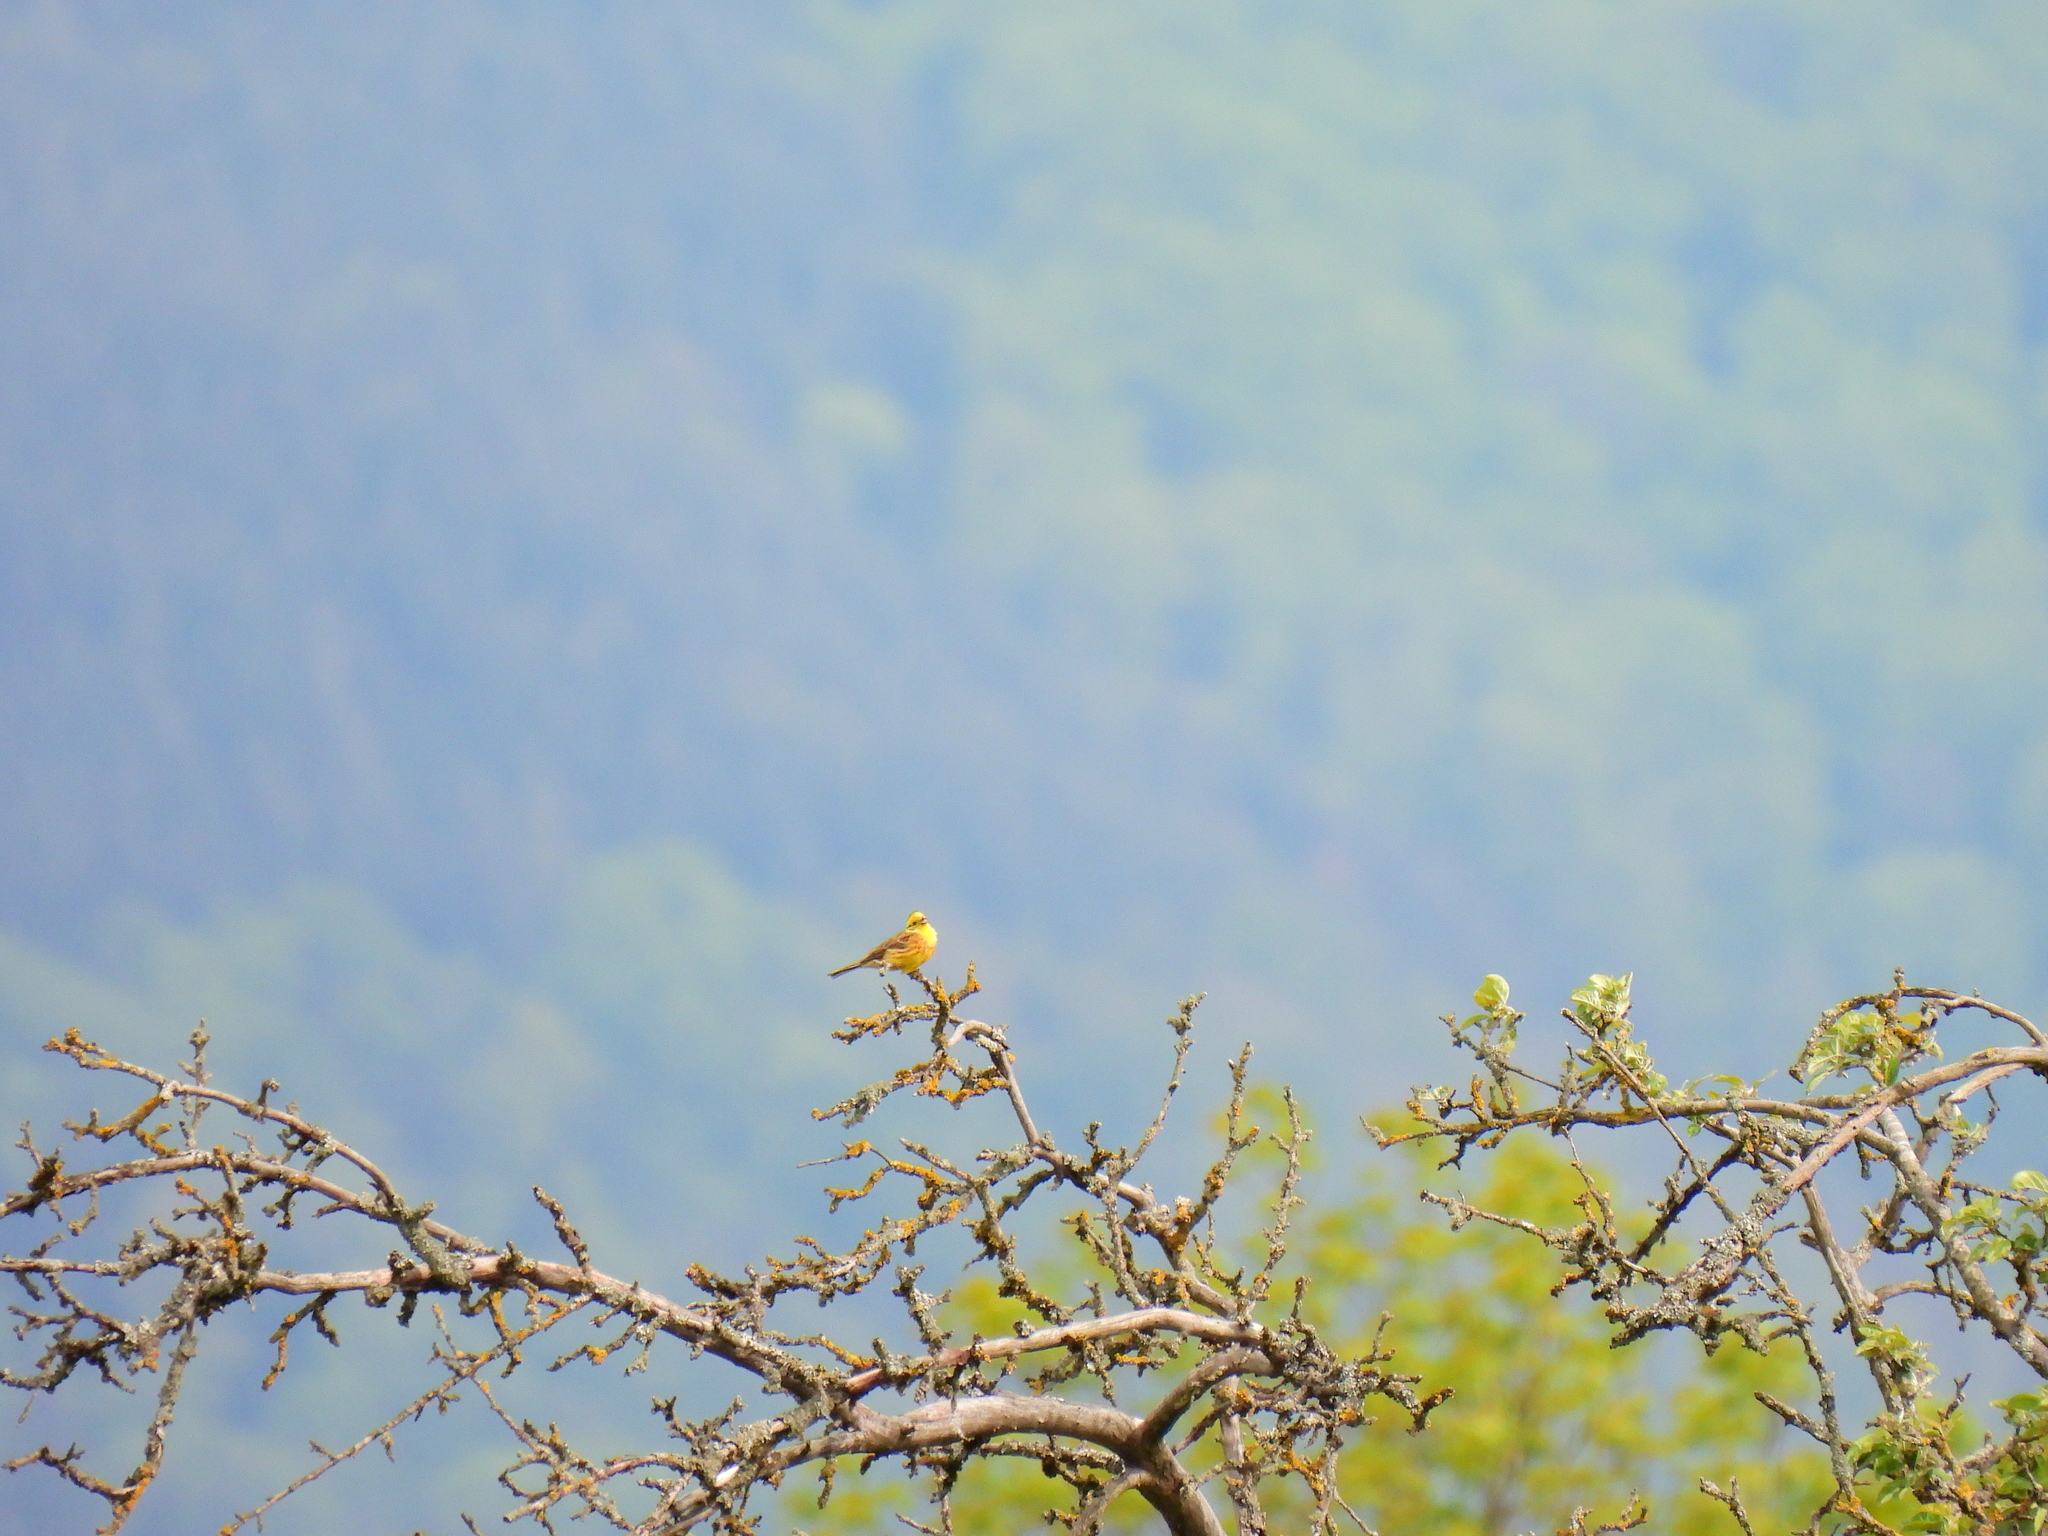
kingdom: Animalia
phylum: Chordata
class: Aves
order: Passeriformes
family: Emberizidae
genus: Emberiza
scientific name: Emberiza citrinella
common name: Yellowhammer
